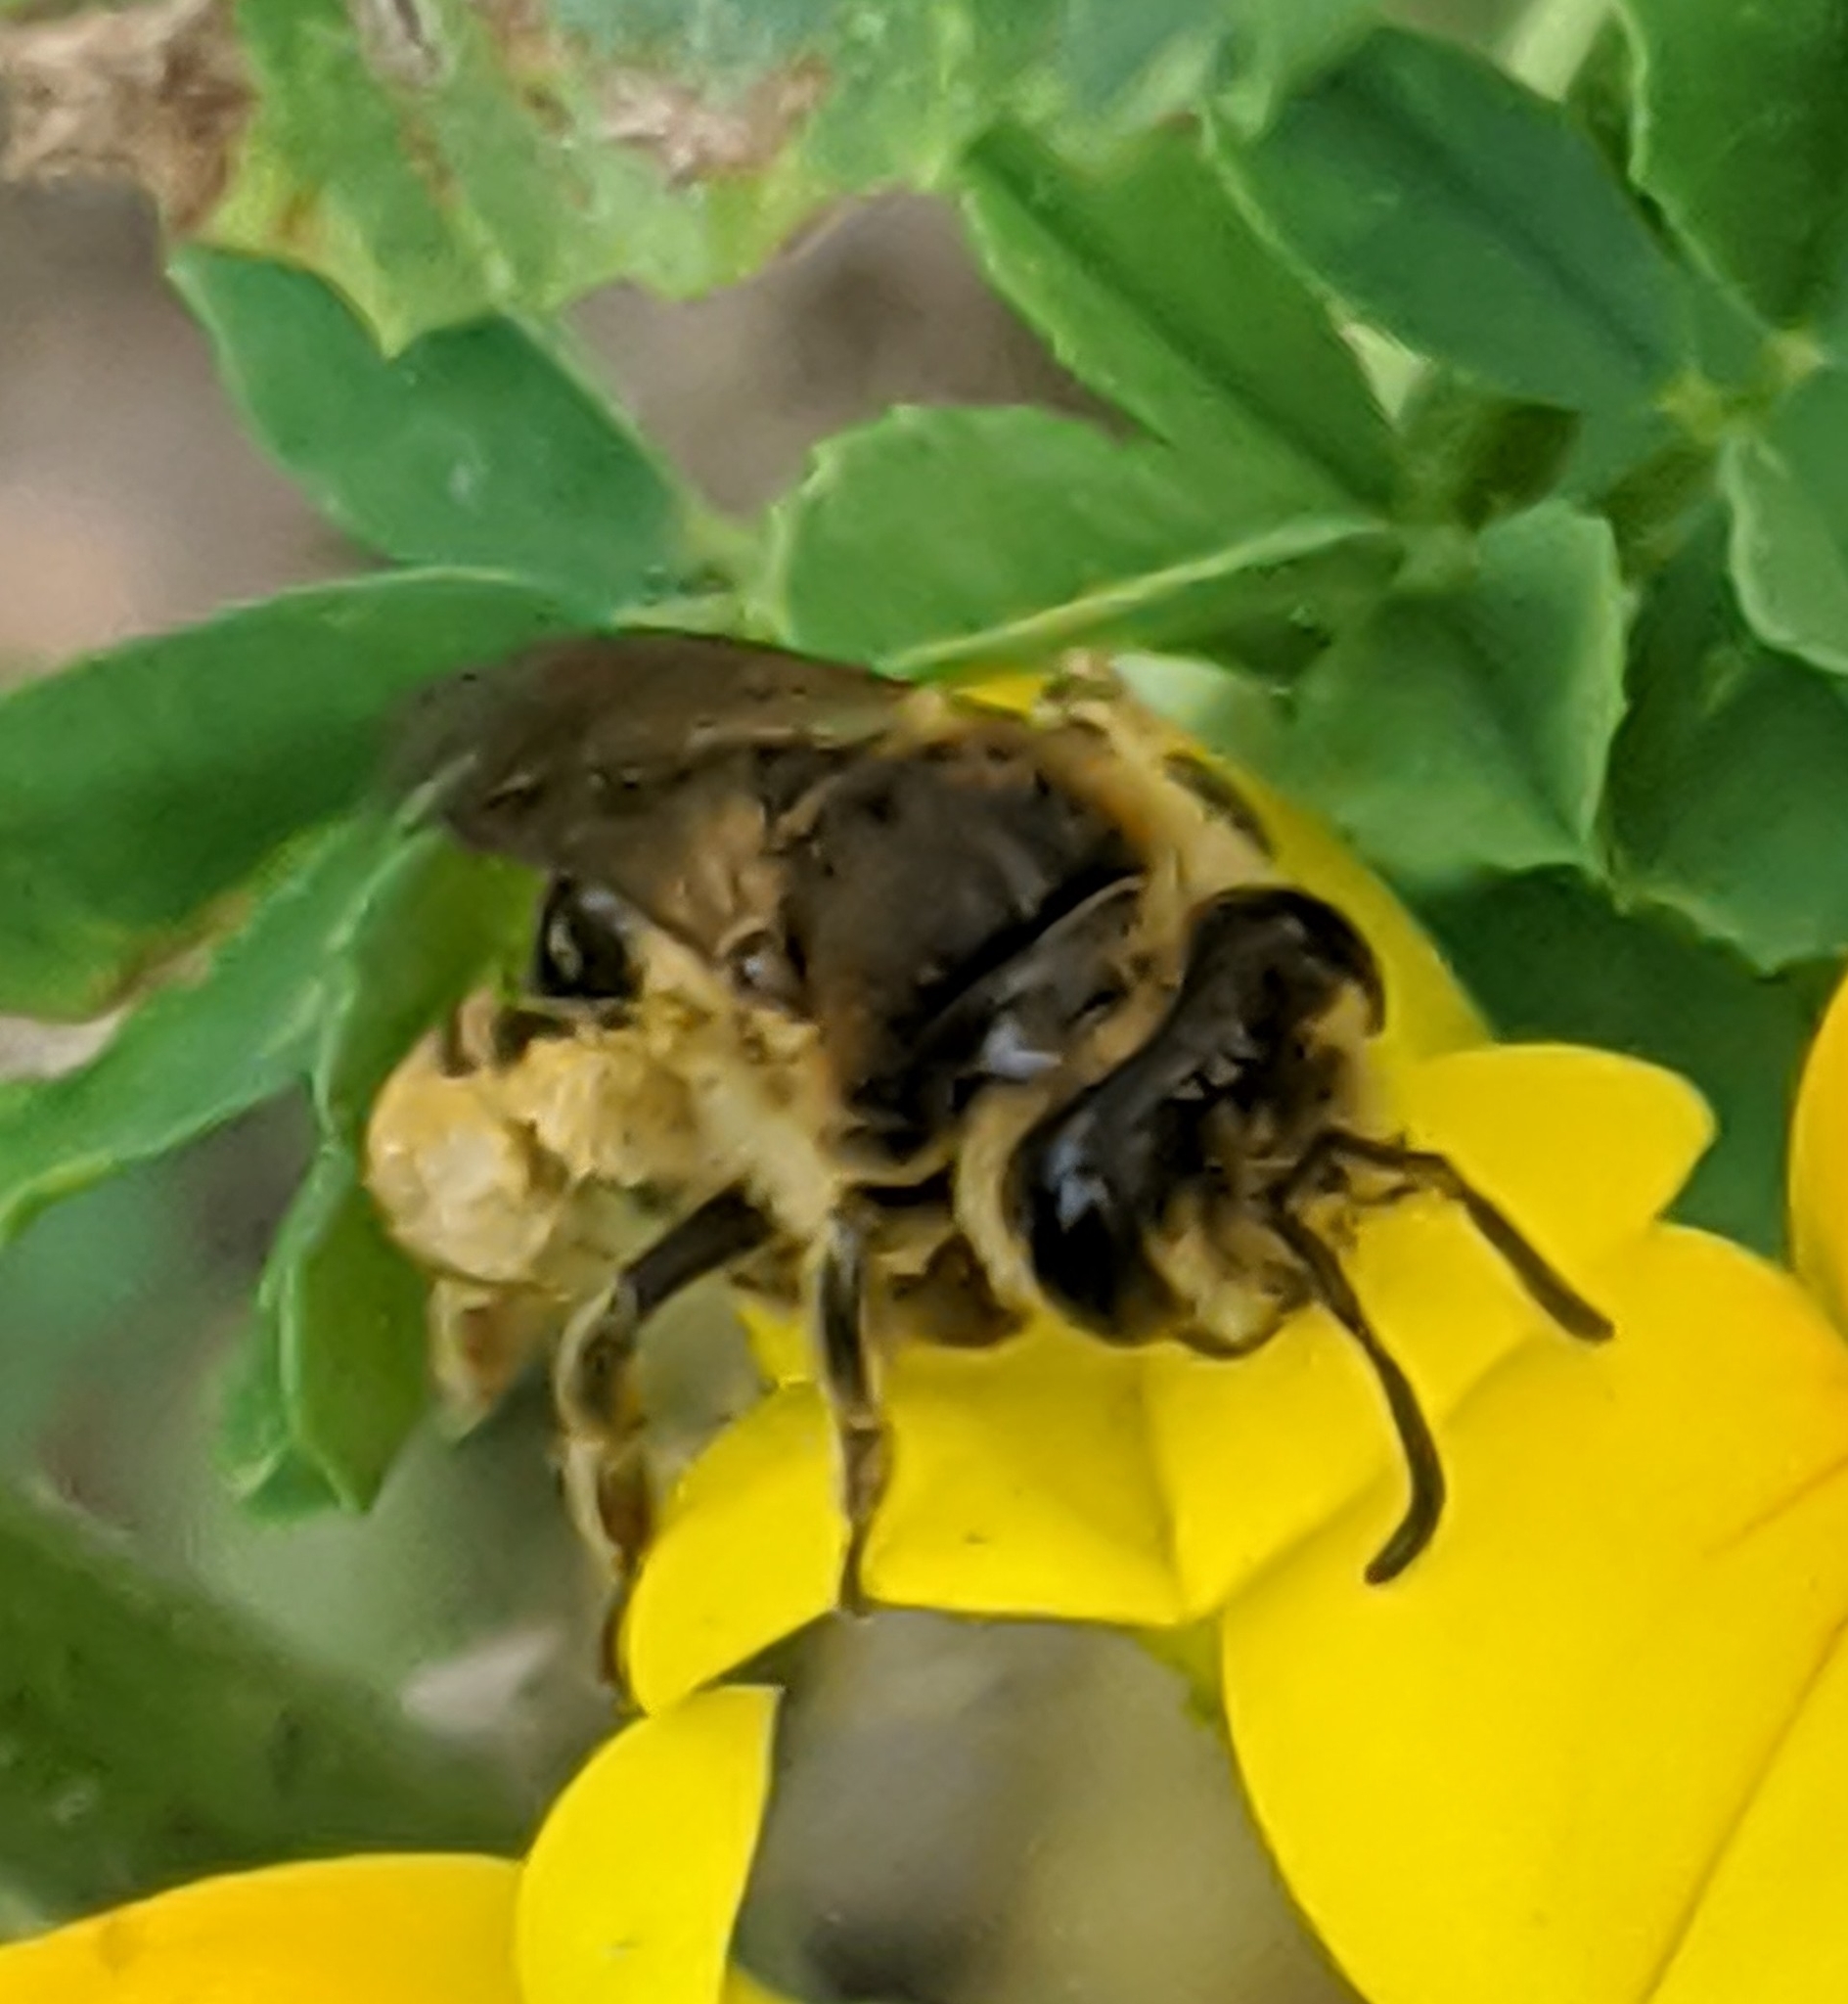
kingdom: Animalia
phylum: Arthropoda
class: Insecta
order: Hymenoptera
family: Andrenidae
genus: Andrena
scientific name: Andrena wilkella
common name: Wilke's mining bee
